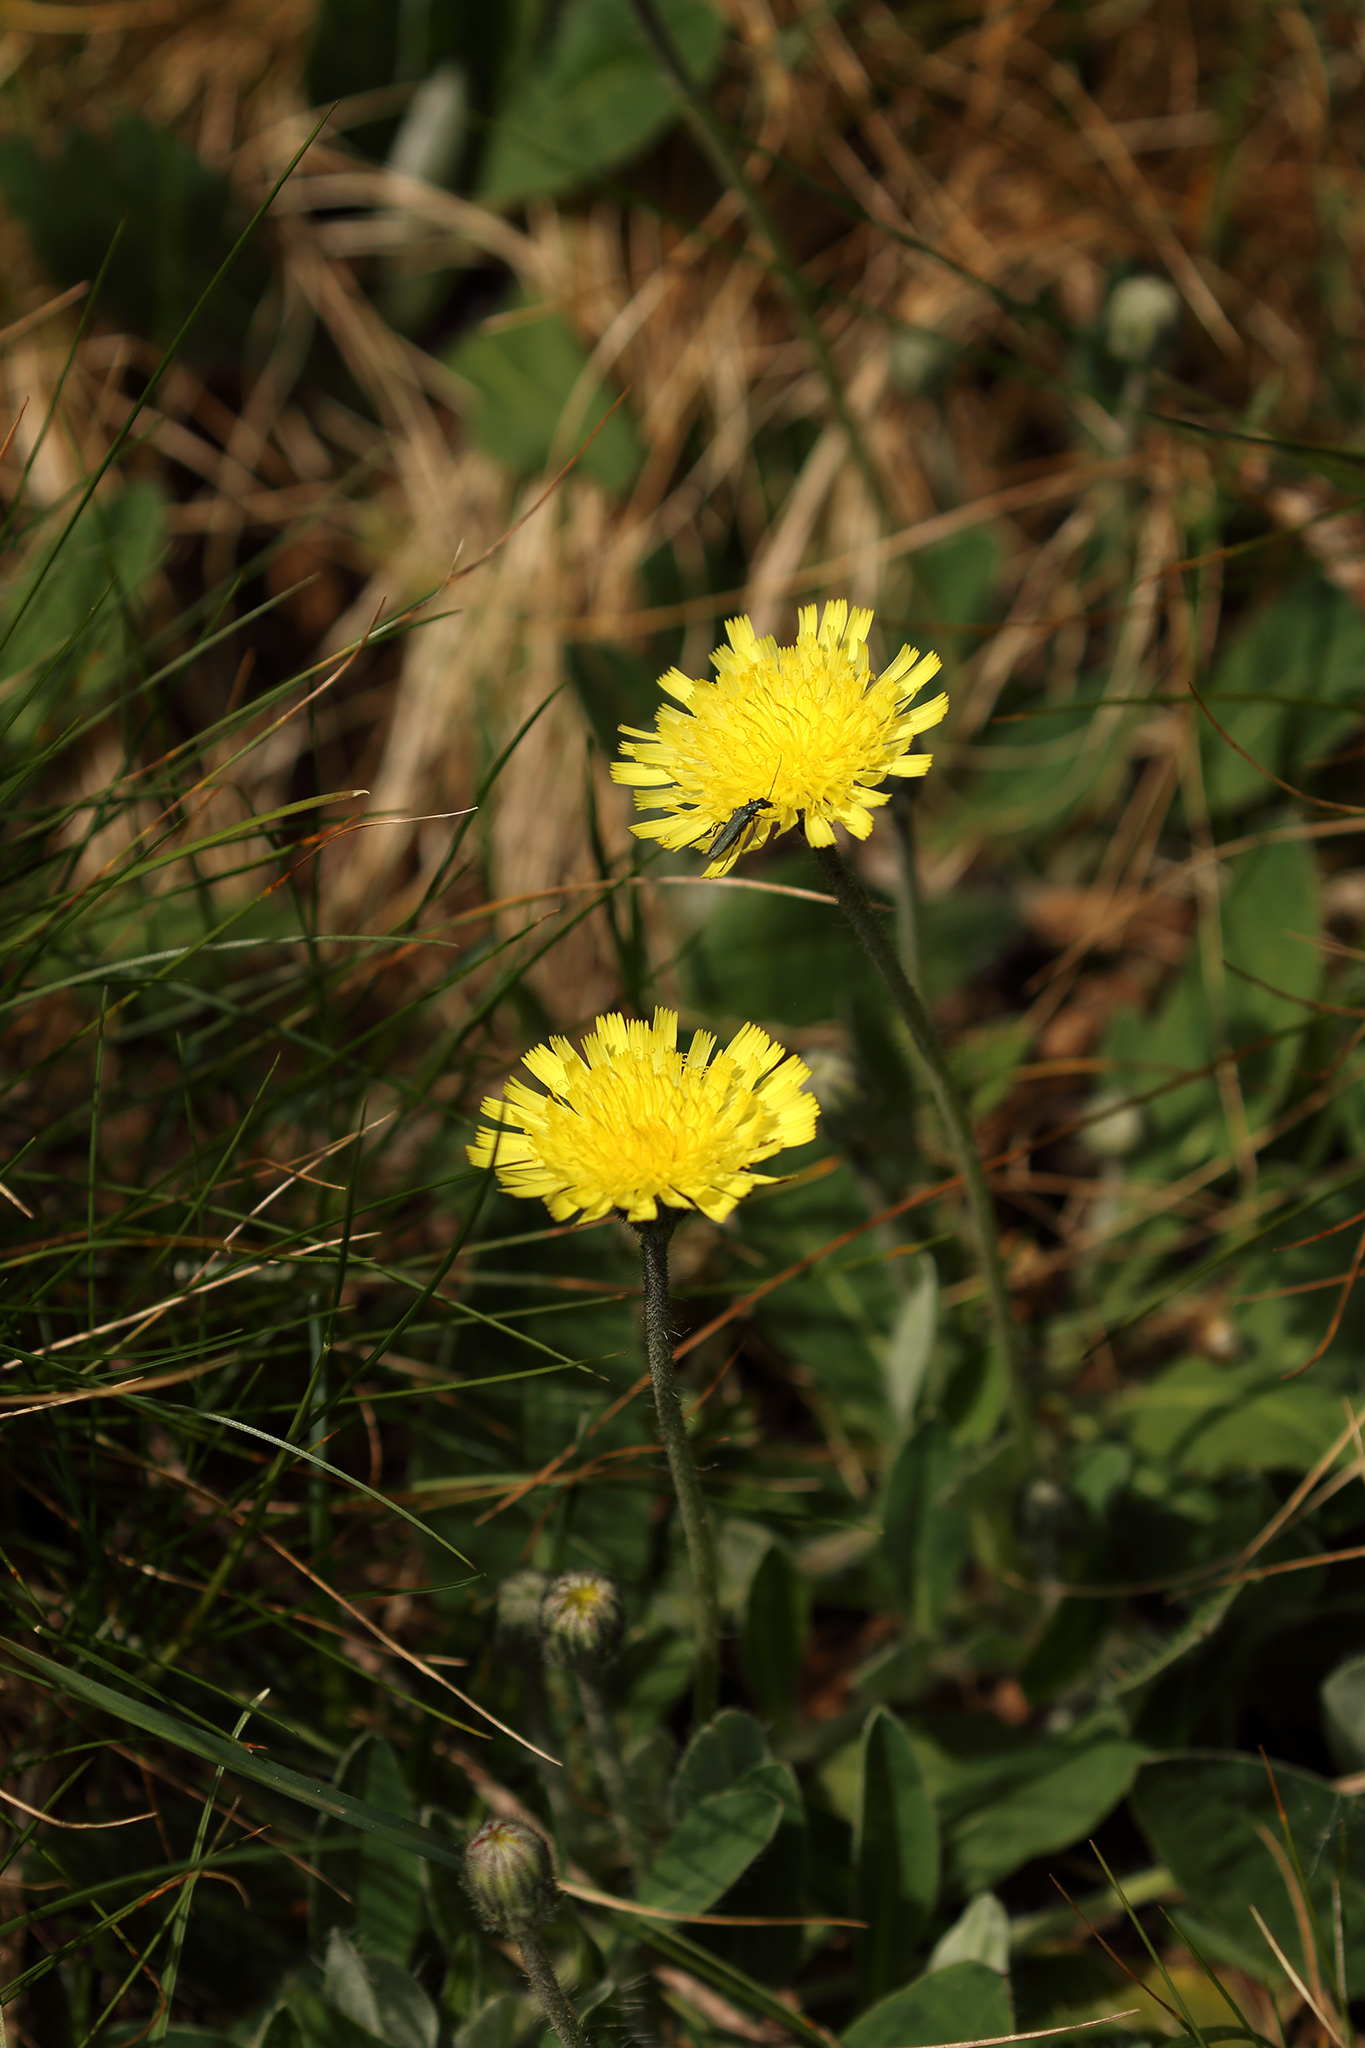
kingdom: Plantae
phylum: Tracheophyta
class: Magnoliopsida
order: Asterales
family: Asteraceae
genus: Pilosella
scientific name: Pilosella officinarum
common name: Mouse-ear hawkweed
